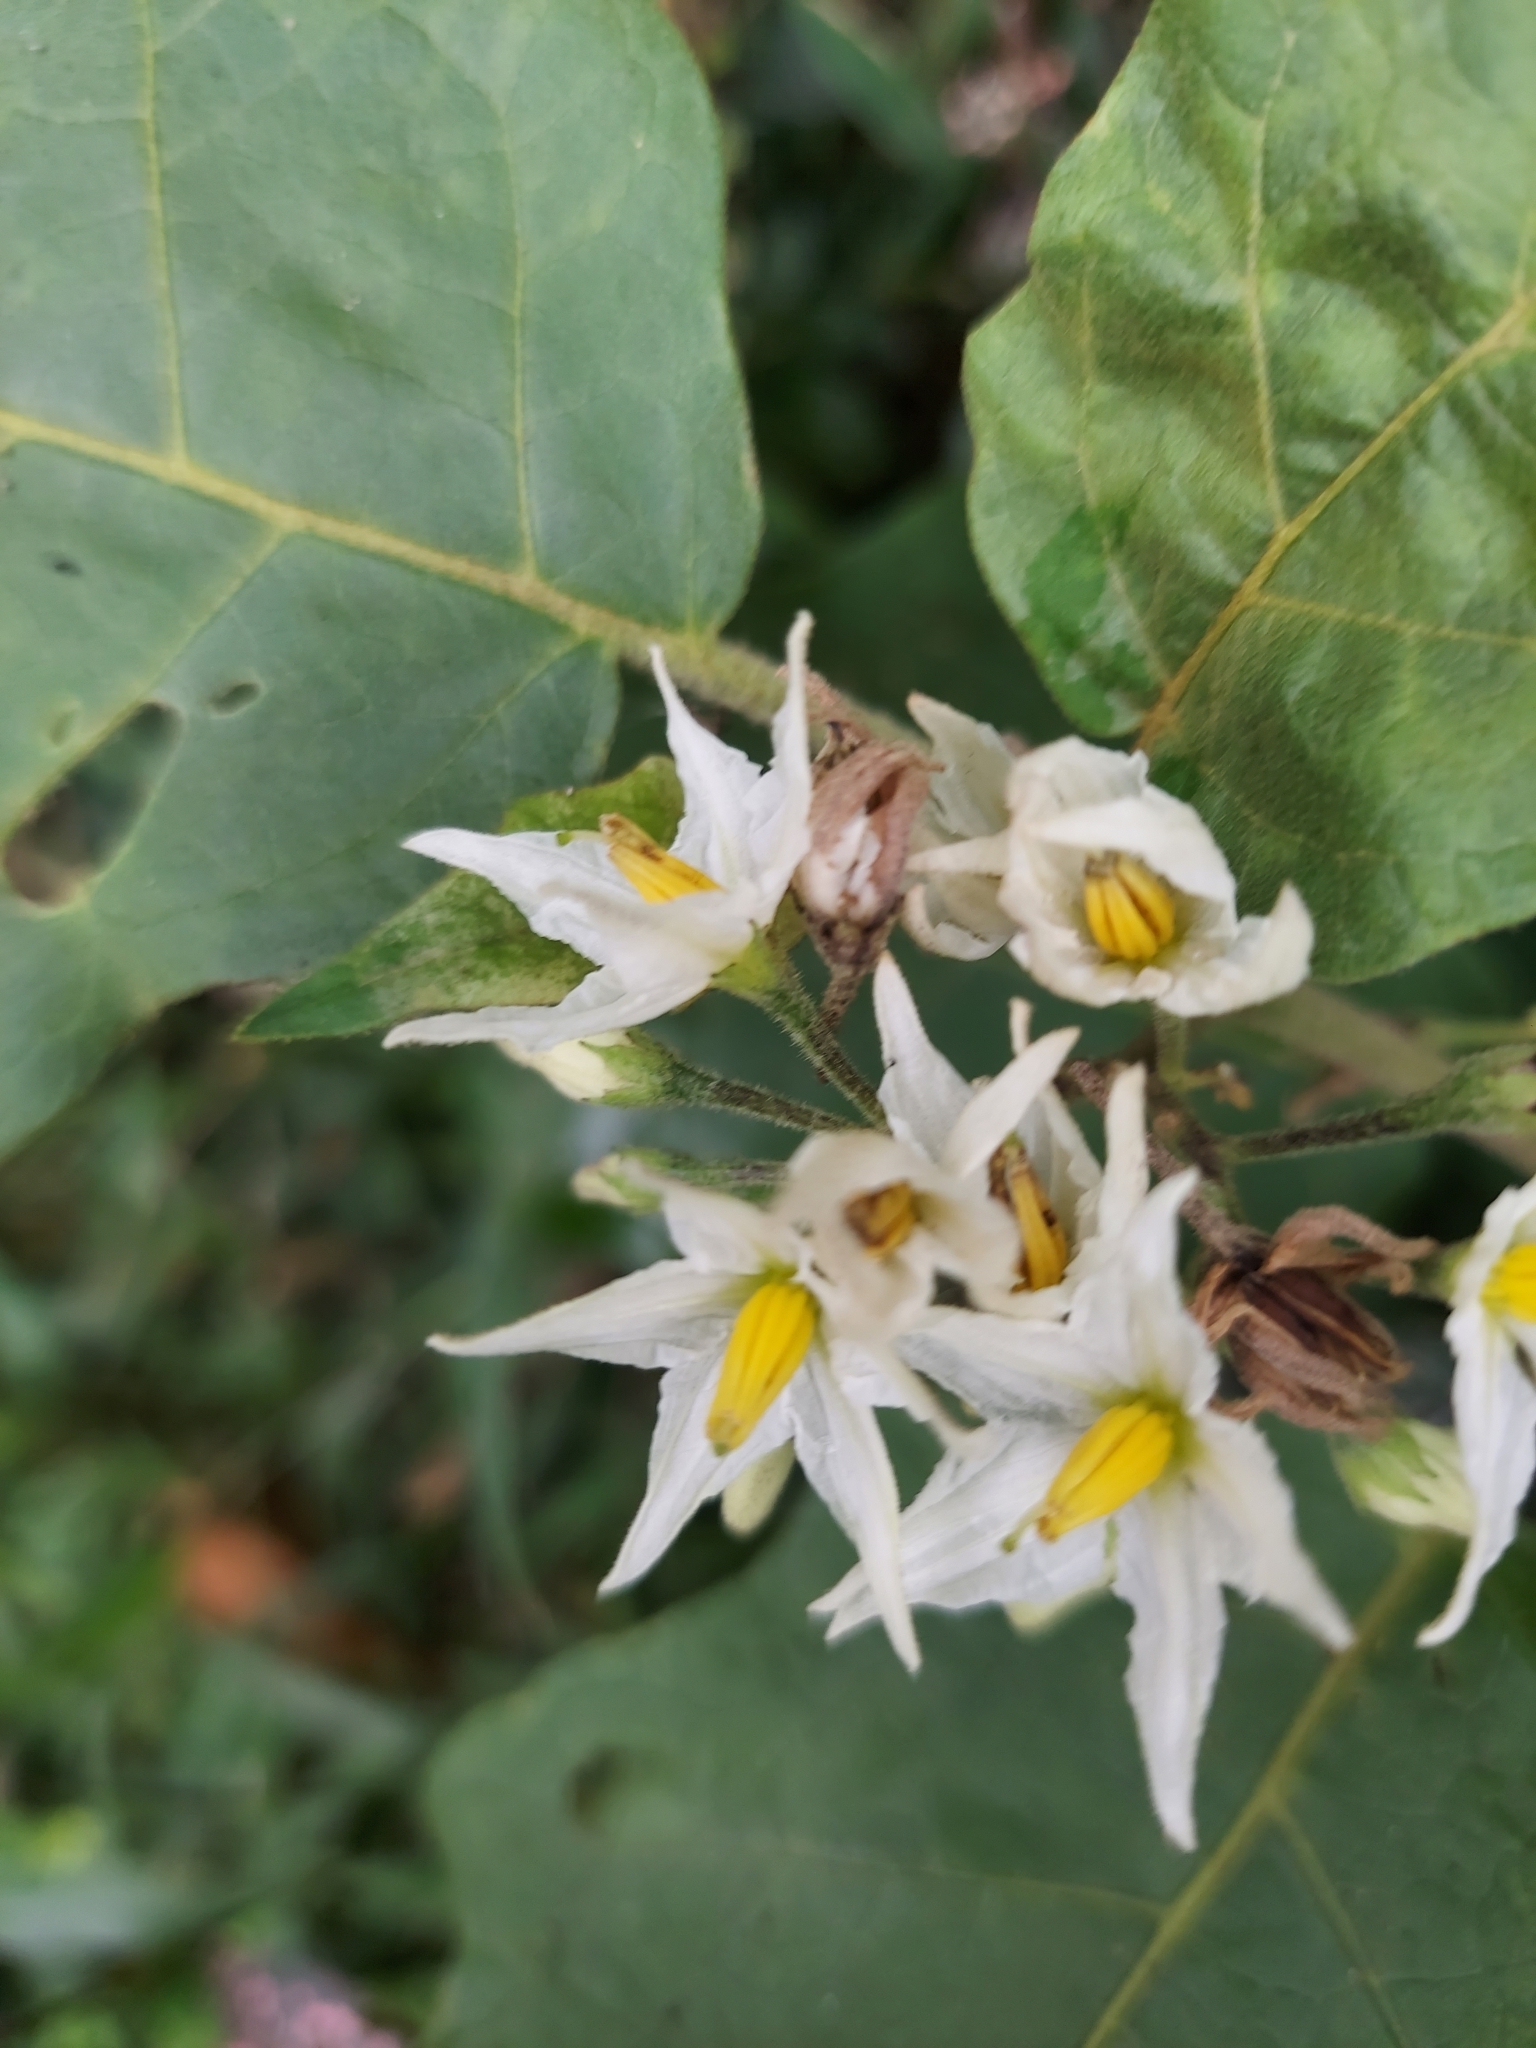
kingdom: Plantae
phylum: Tracheophyta
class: Magnoliopsida
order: Solanales
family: Solanaceae
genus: Solanum
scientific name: Solanum torvum
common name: Turkey berry
